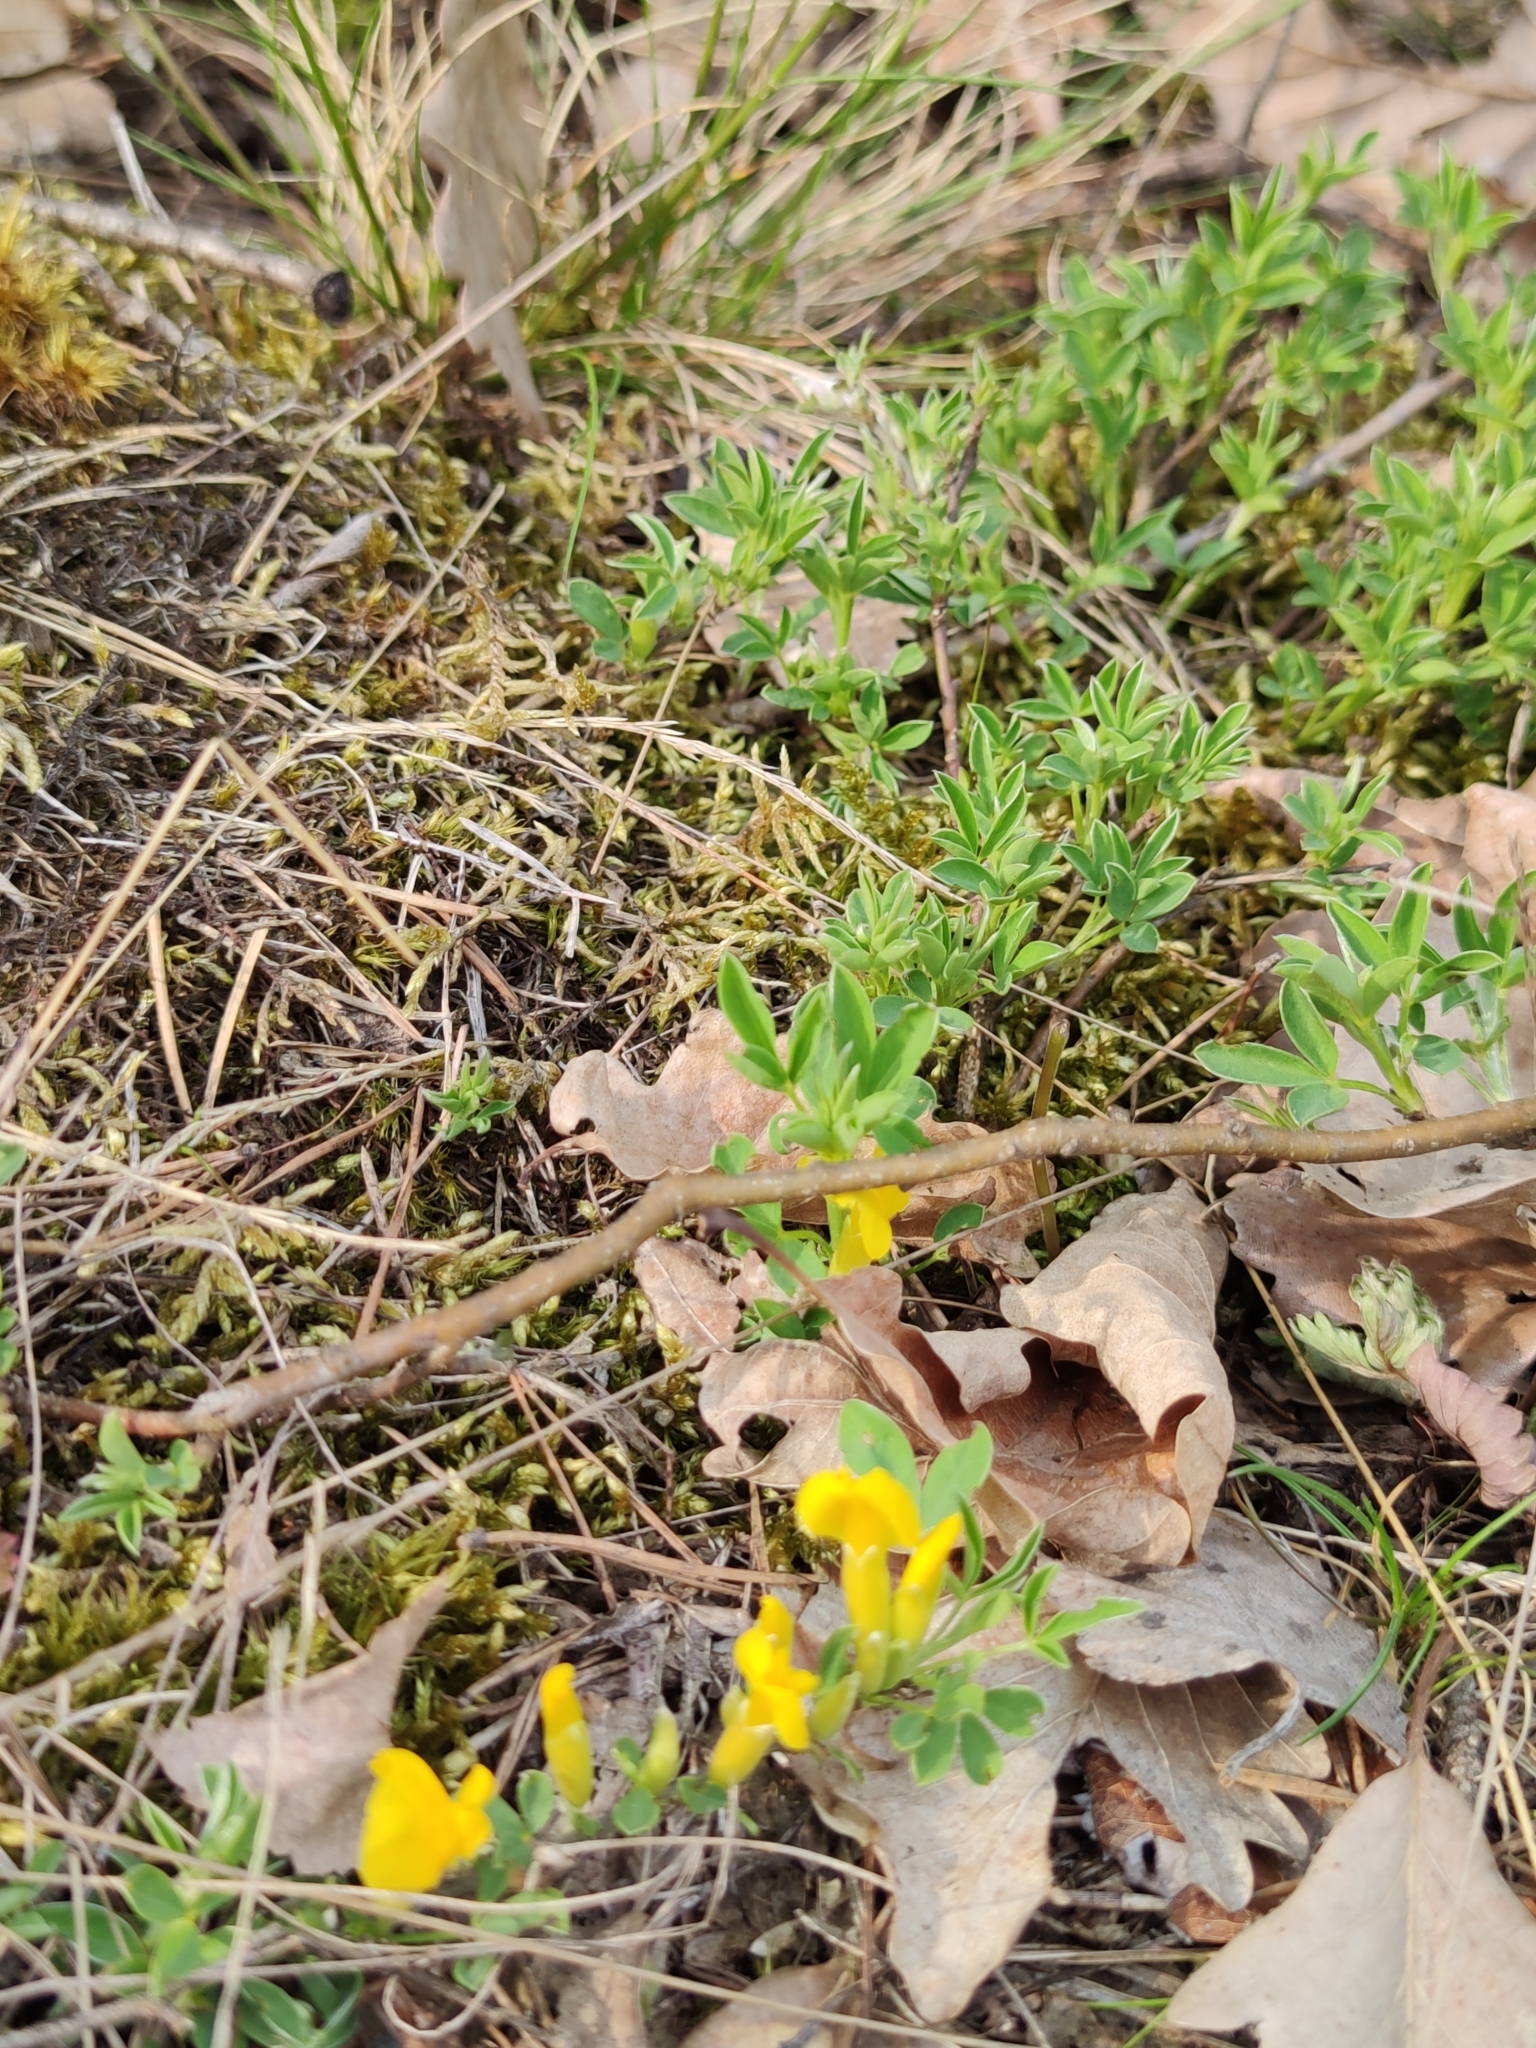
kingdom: Plantae
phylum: Tracheophyta
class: Magnoliopsida
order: Fabales
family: Fabaceae
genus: Chamaecytisus
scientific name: Chamaecytisus ratisbonensis
